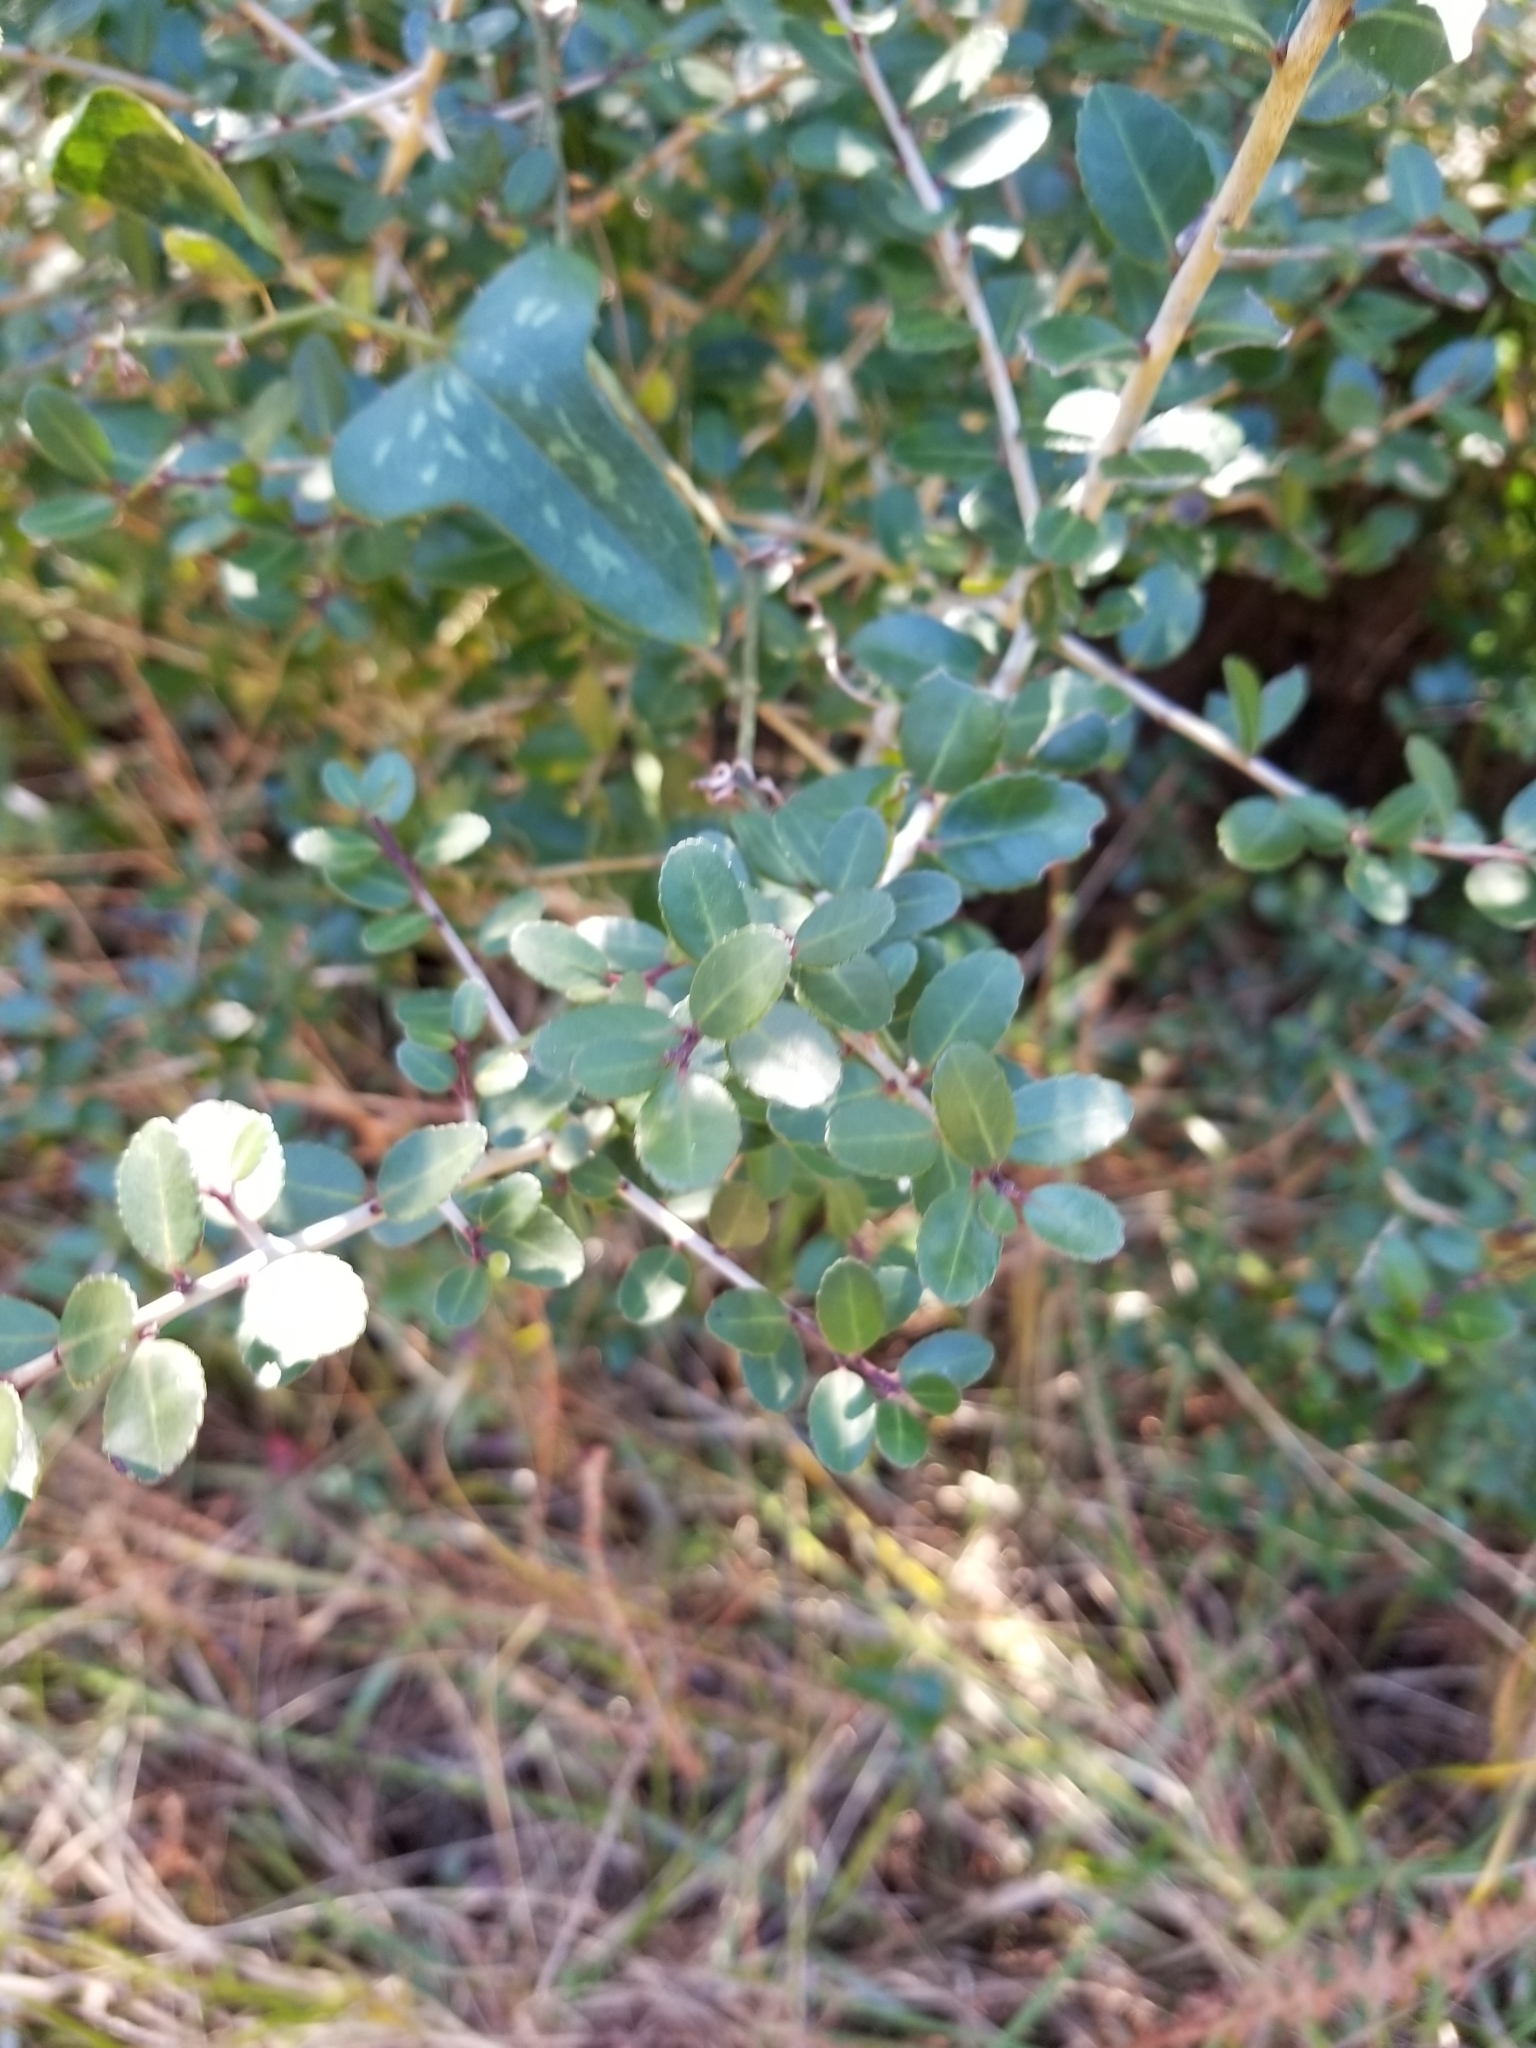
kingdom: Plantae
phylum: Tracheophyta
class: Magnoliopsida
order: Aquifoliales
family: Aquifoliaceae
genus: Ilex
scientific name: Ilex vomitoria
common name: Yaupon holly
